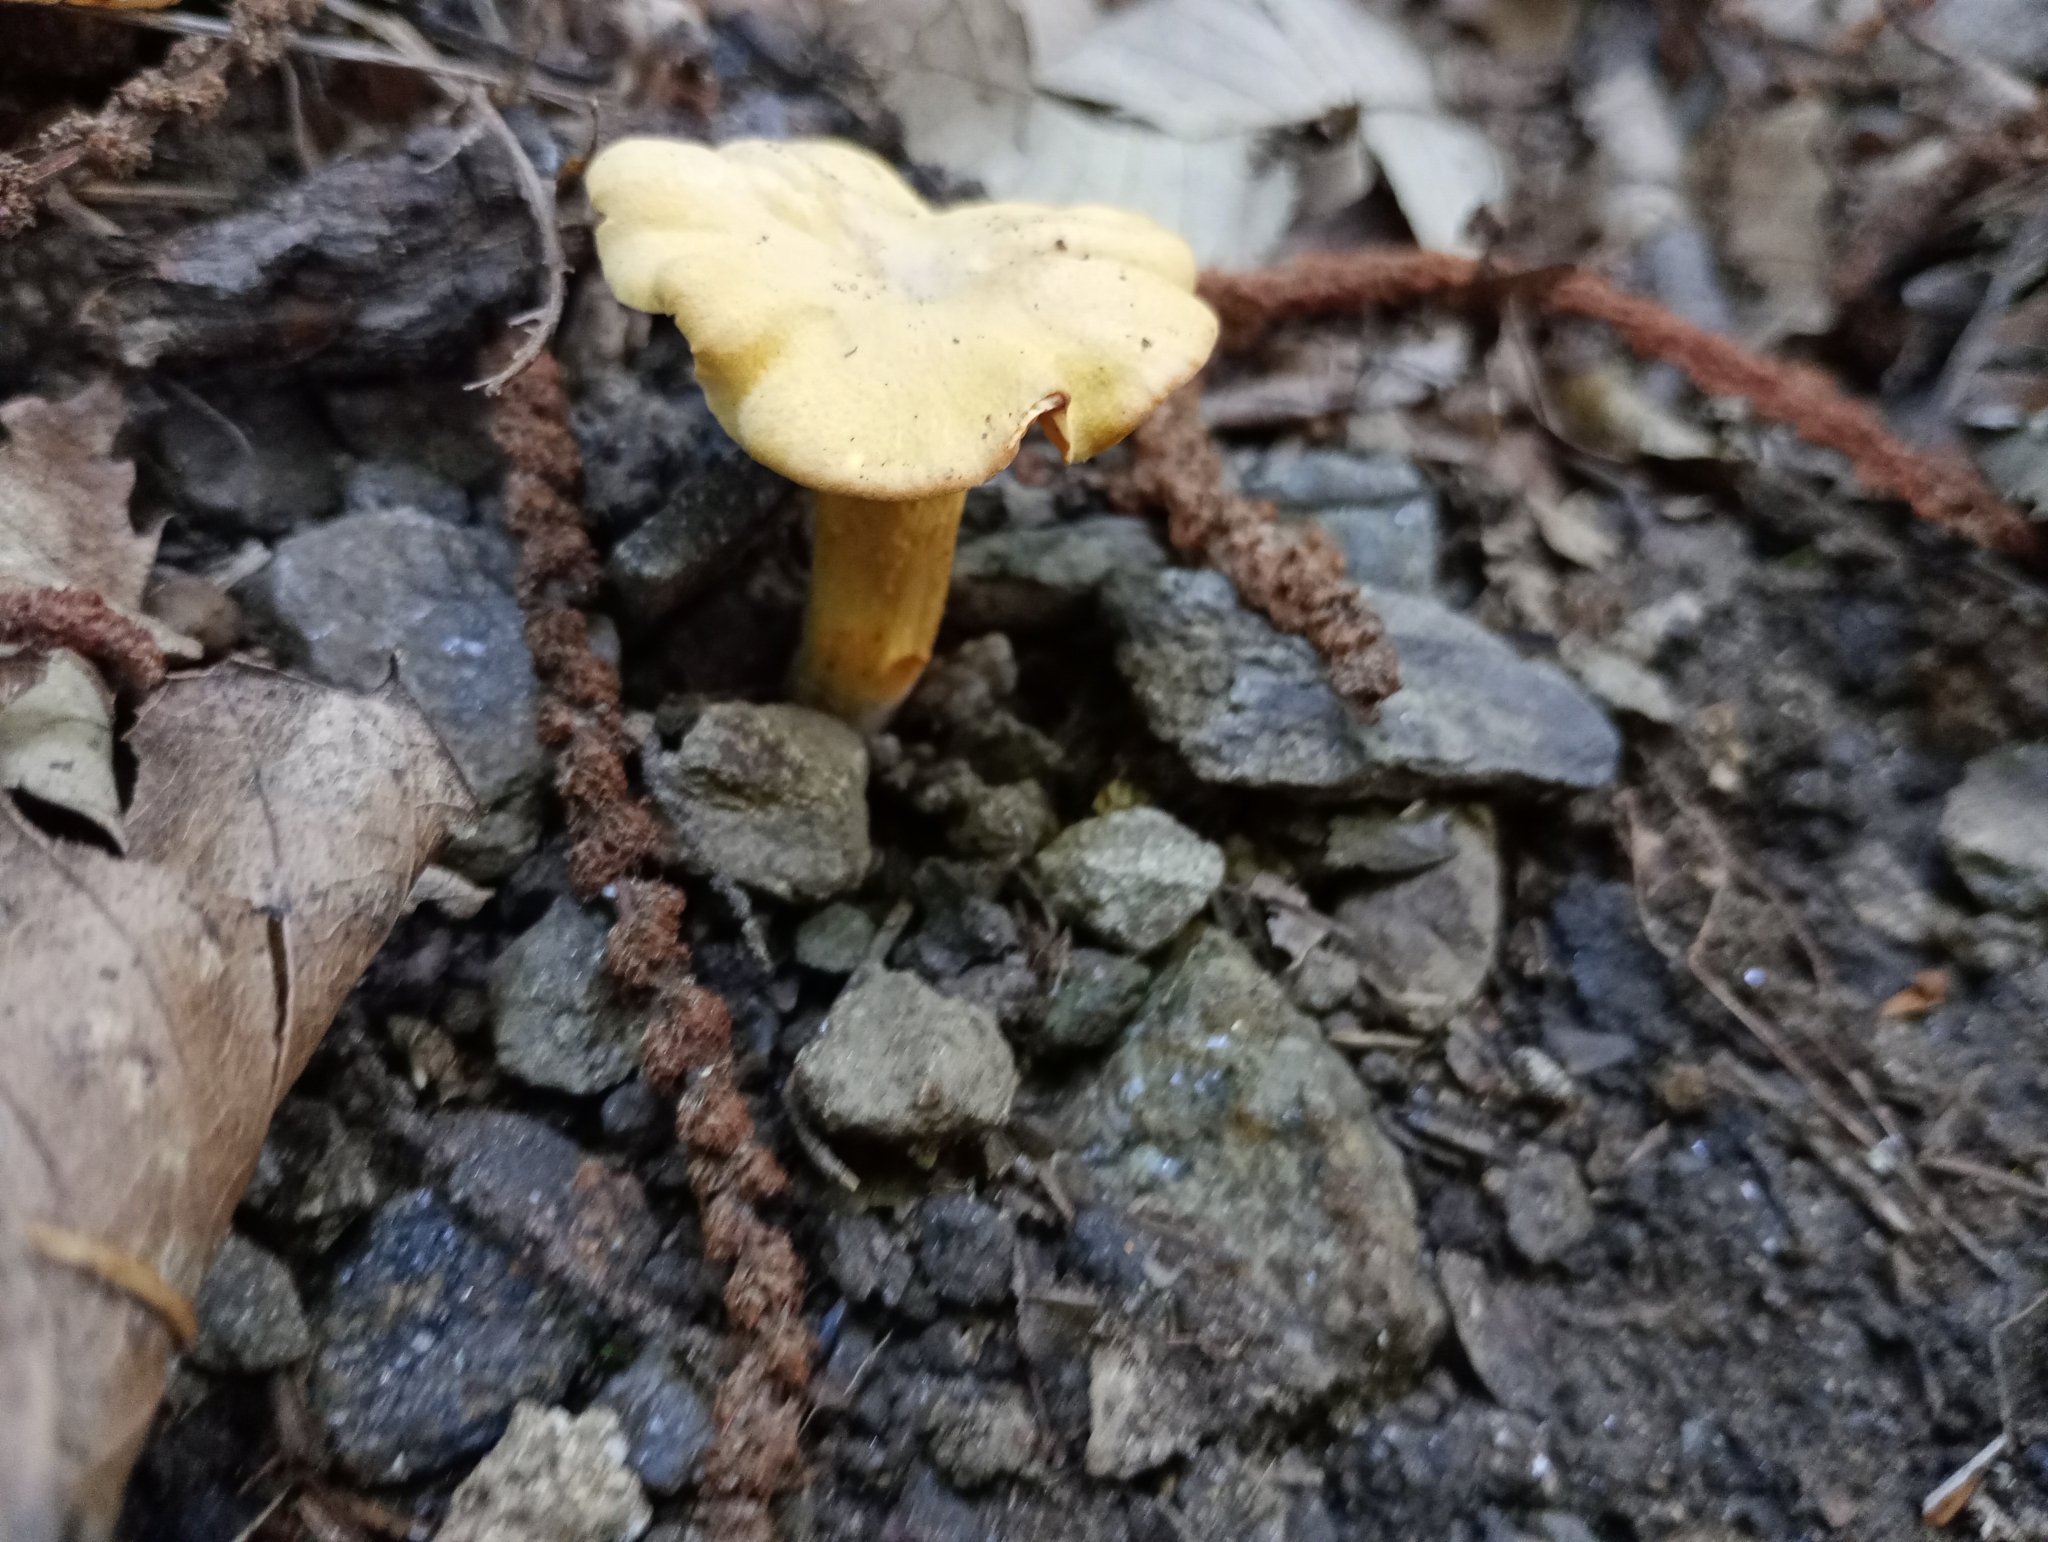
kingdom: Fungi
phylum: Basidiomycota
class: Agaricomycetes
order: Cantharellales
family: Hydnaceae
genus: Cantharellus
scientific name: Cantharellus cibarius
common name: Chanterelle
